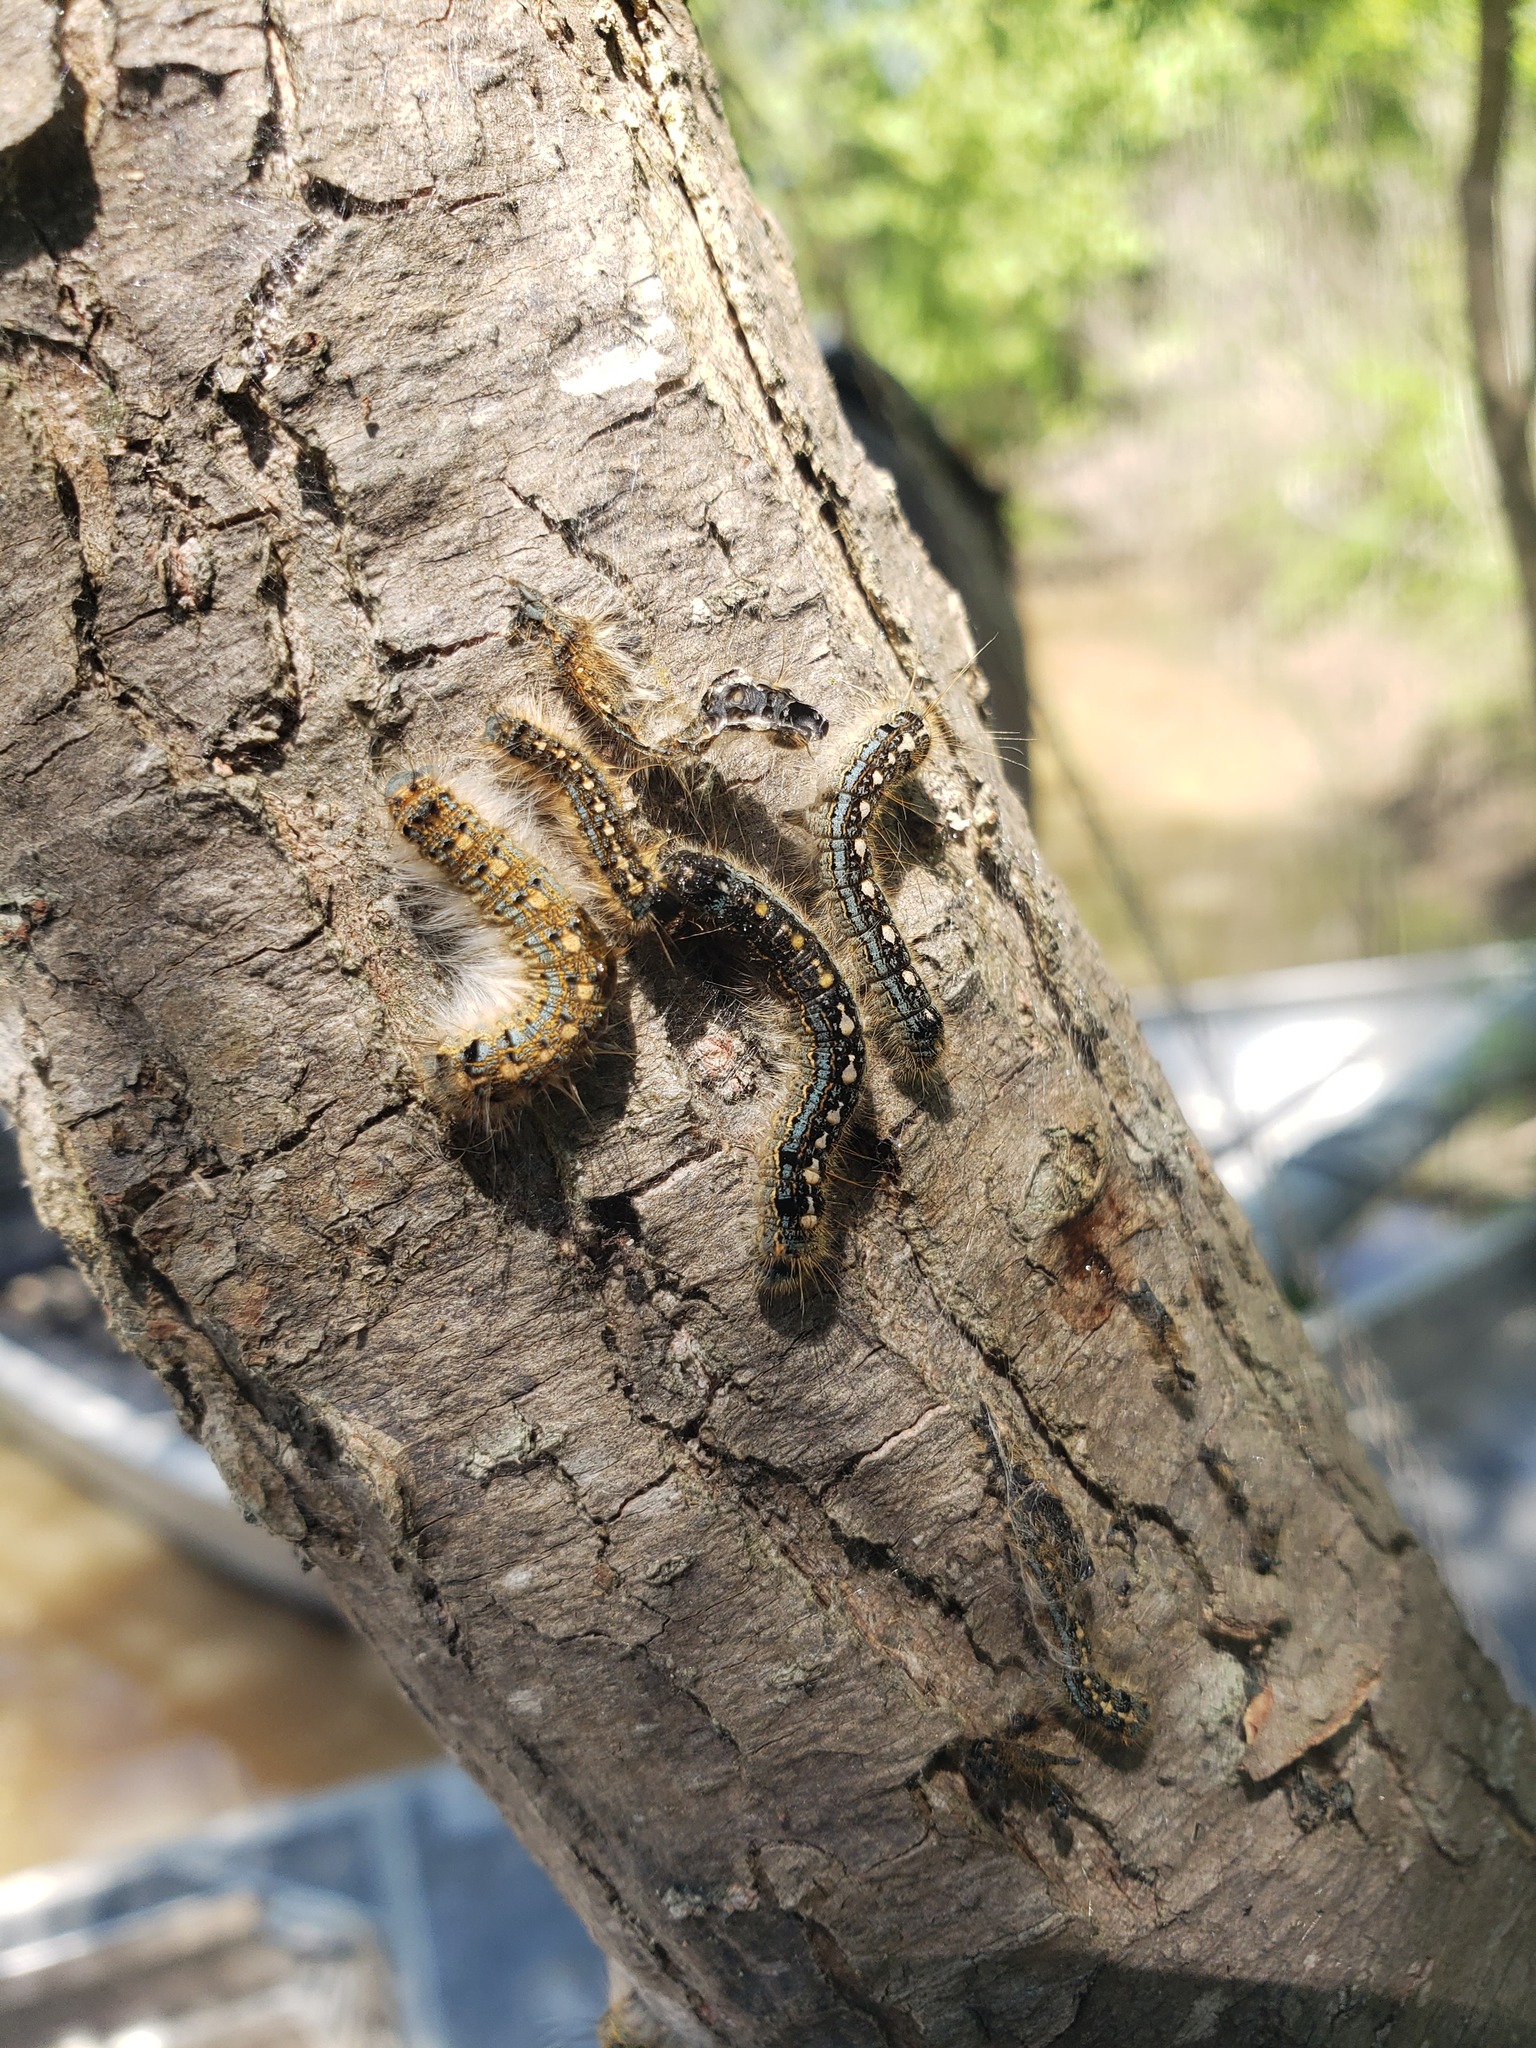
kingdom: Animalia
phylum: Arthropoda
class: Insecta
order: Lepidoptera
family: Lasiocampidae
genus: Malacosoma
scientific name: Malacosoma disstria
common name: Forest tent caterpillar
